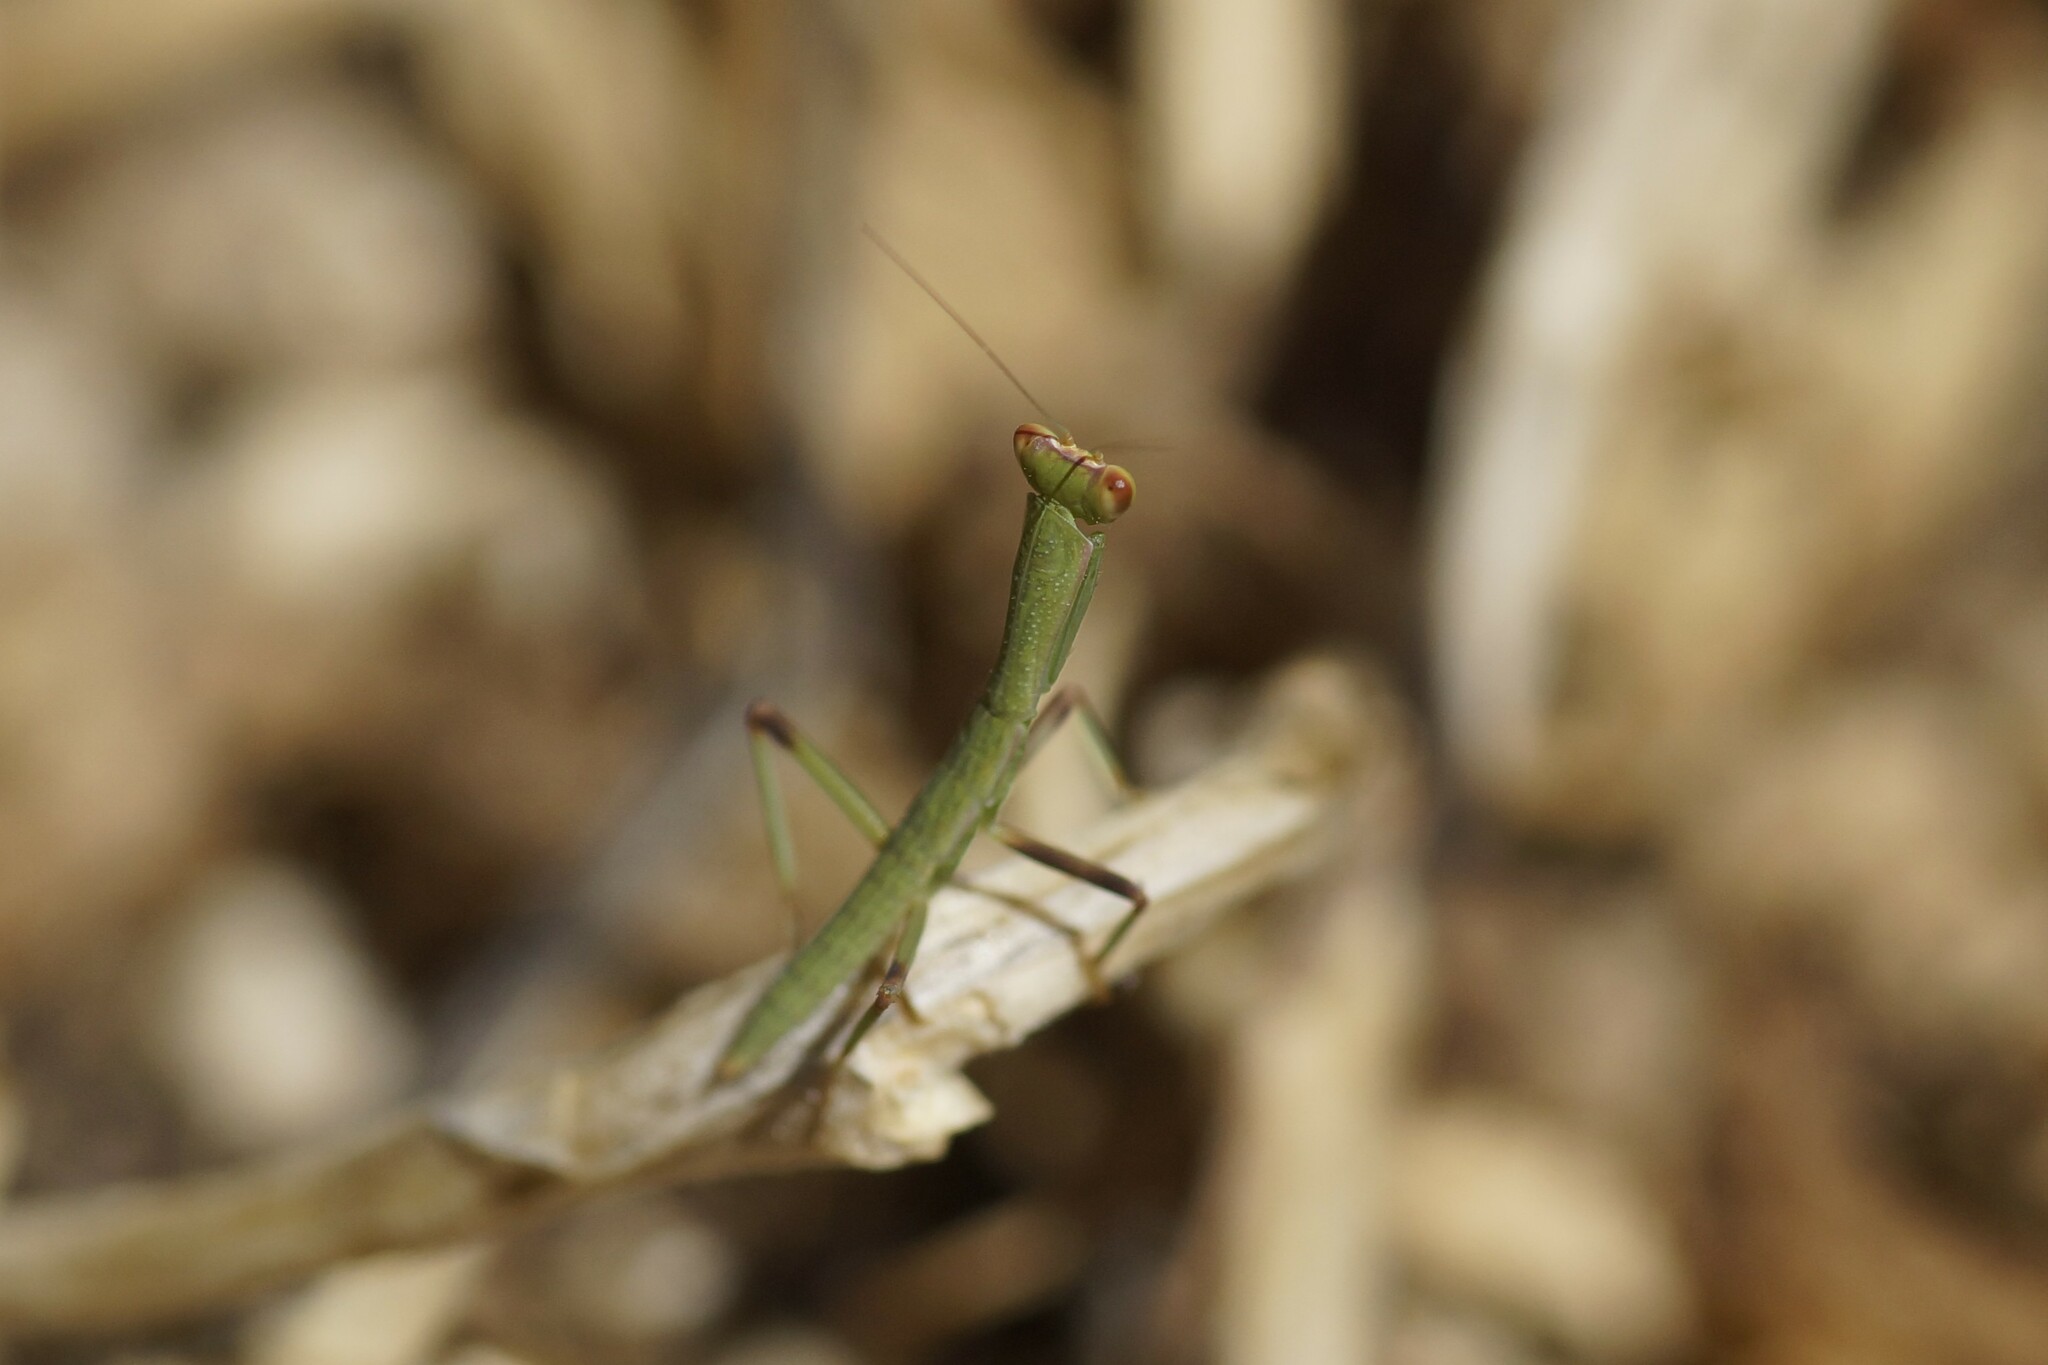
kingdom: Animalia
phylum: Arthropoda
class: Insecta
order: Mantodea
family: Mantidae
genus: Orthodera
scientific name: Orthodera ministralis
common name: Mantis
